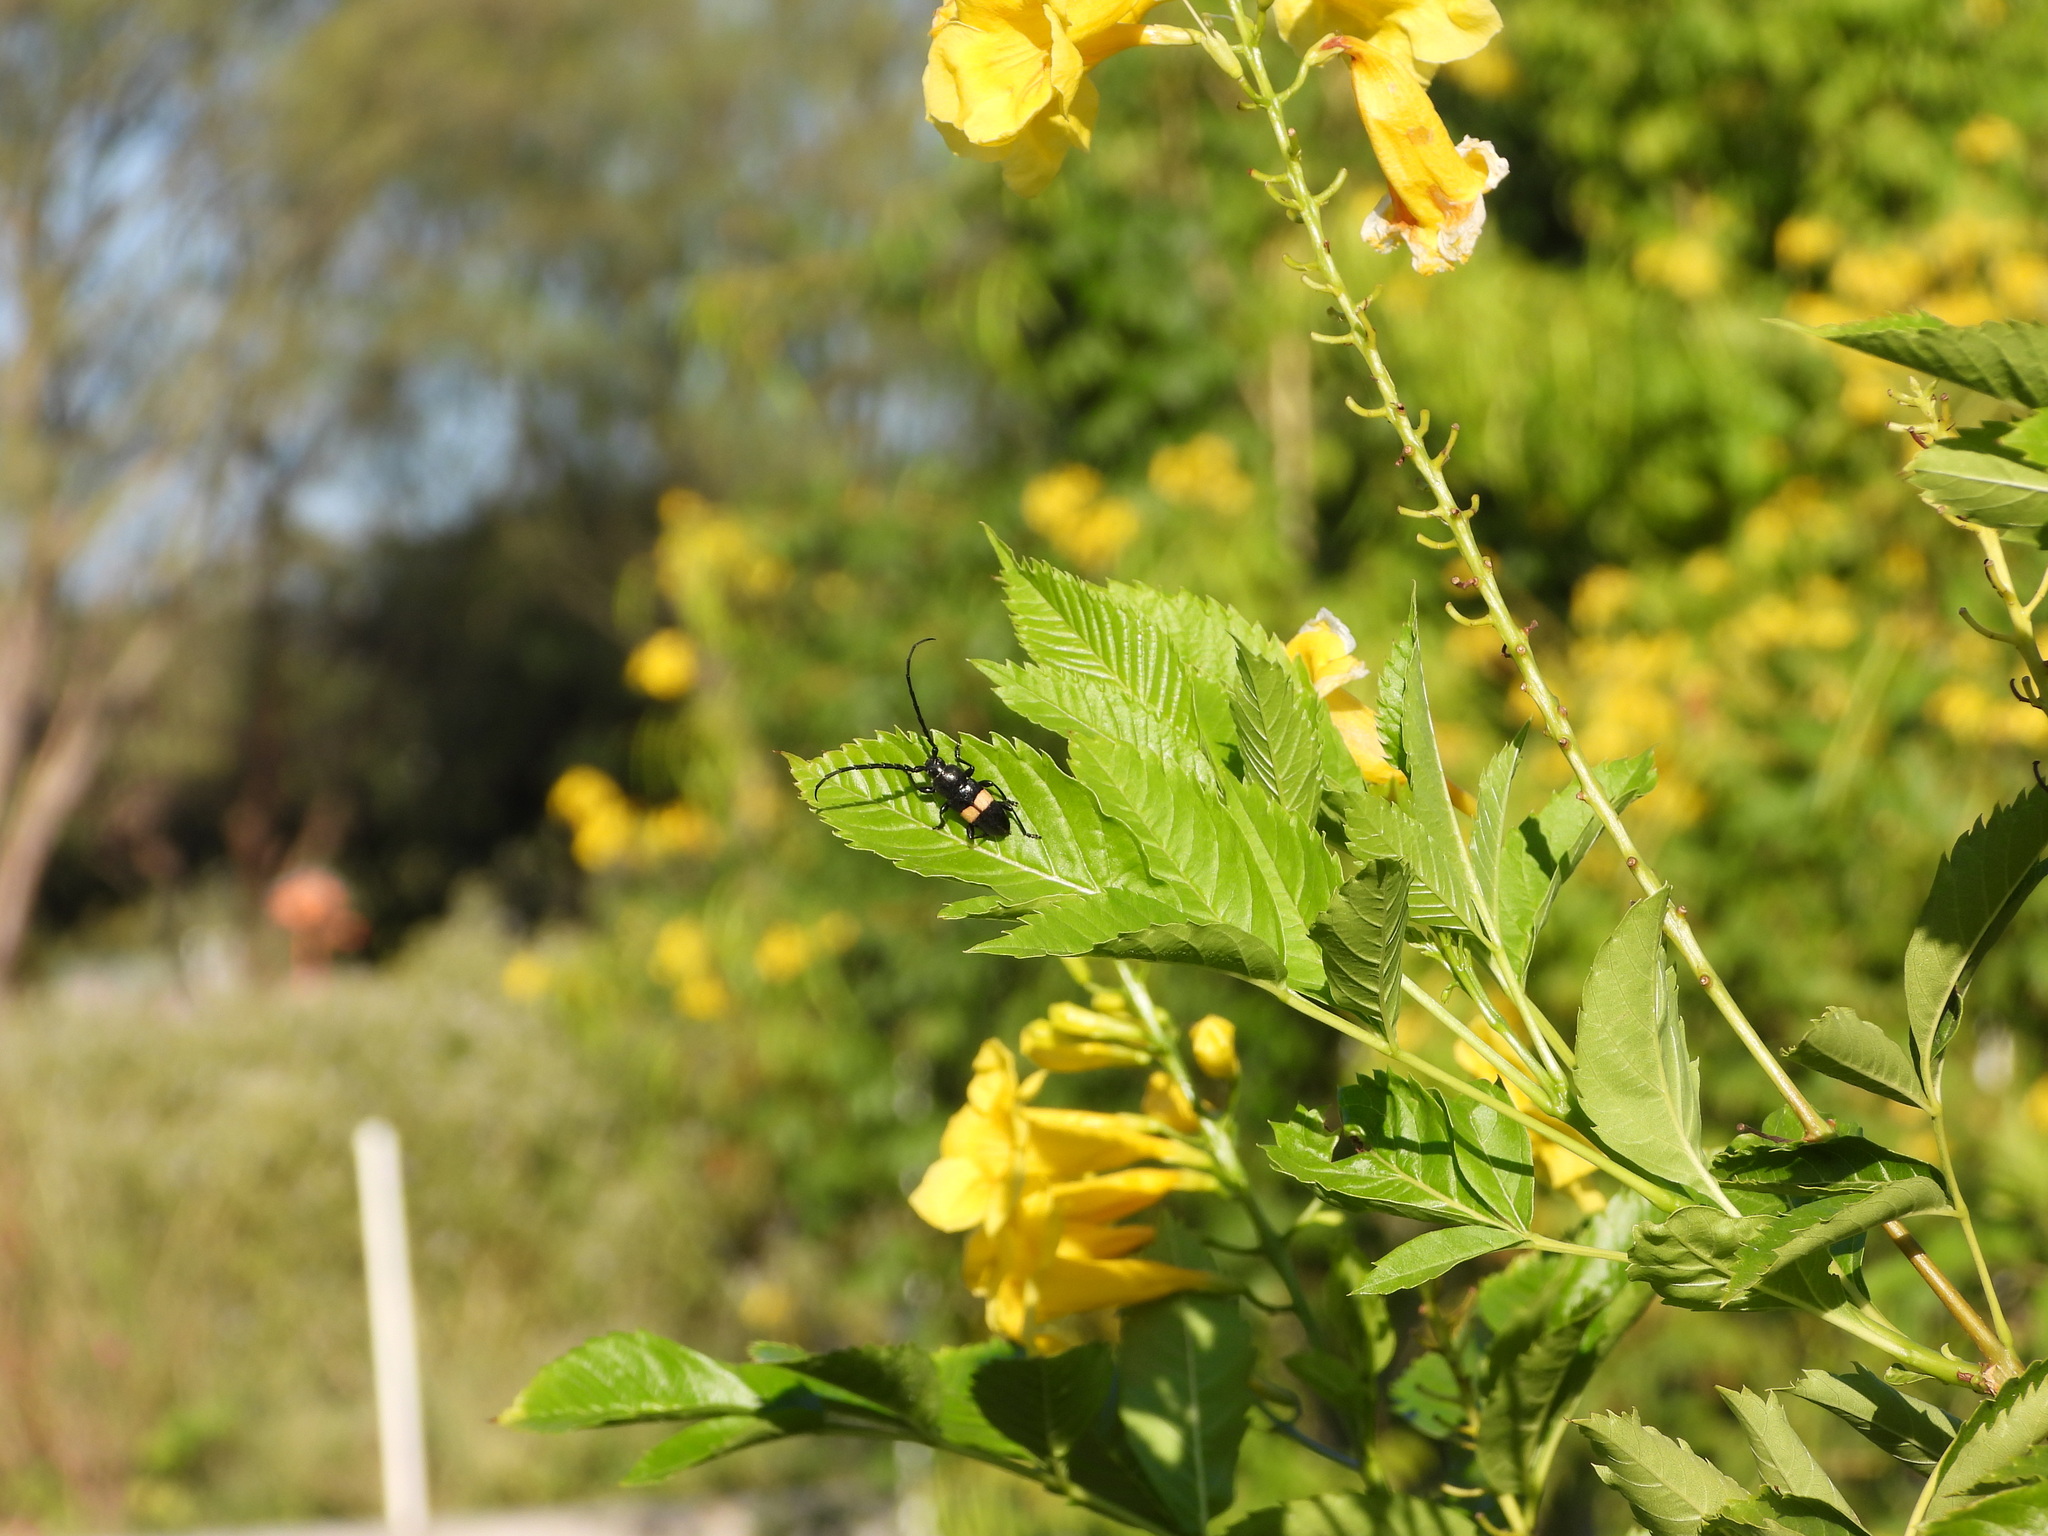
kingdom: Animalia
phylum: Arthropoda
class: Insecta
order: Coleoptera
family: Cerambycidae
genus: Lissonotus
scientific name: Lissonotus flavocinctus
